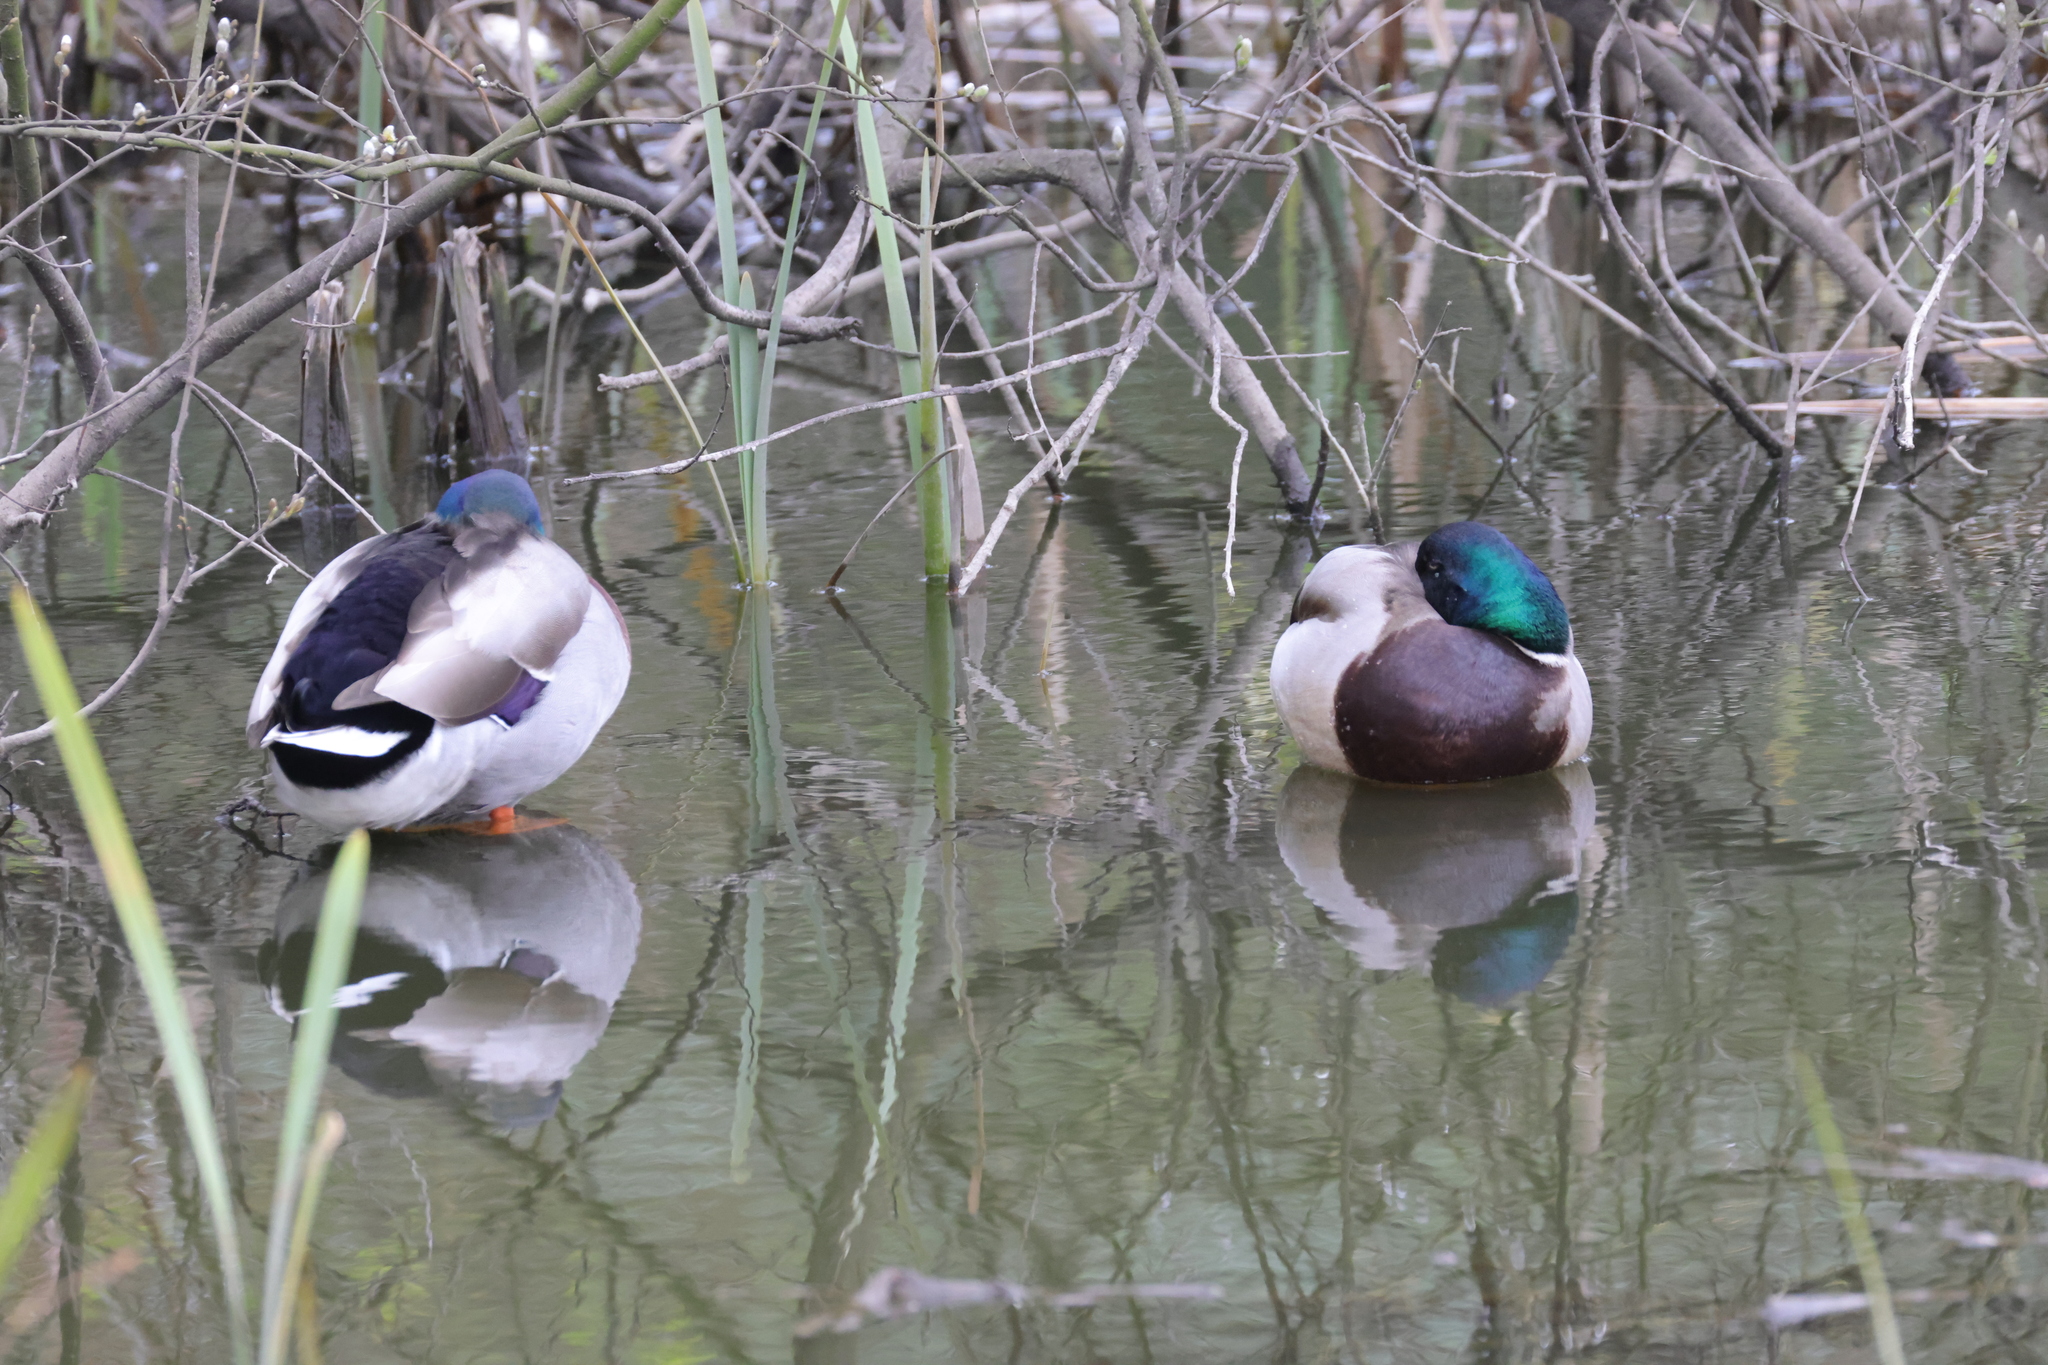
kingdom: Animalia
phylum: Chordata
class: Aves
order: Anseriformes
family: Anatidae
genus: Anas
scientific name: Anas platyrhynchos
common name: Mallard
